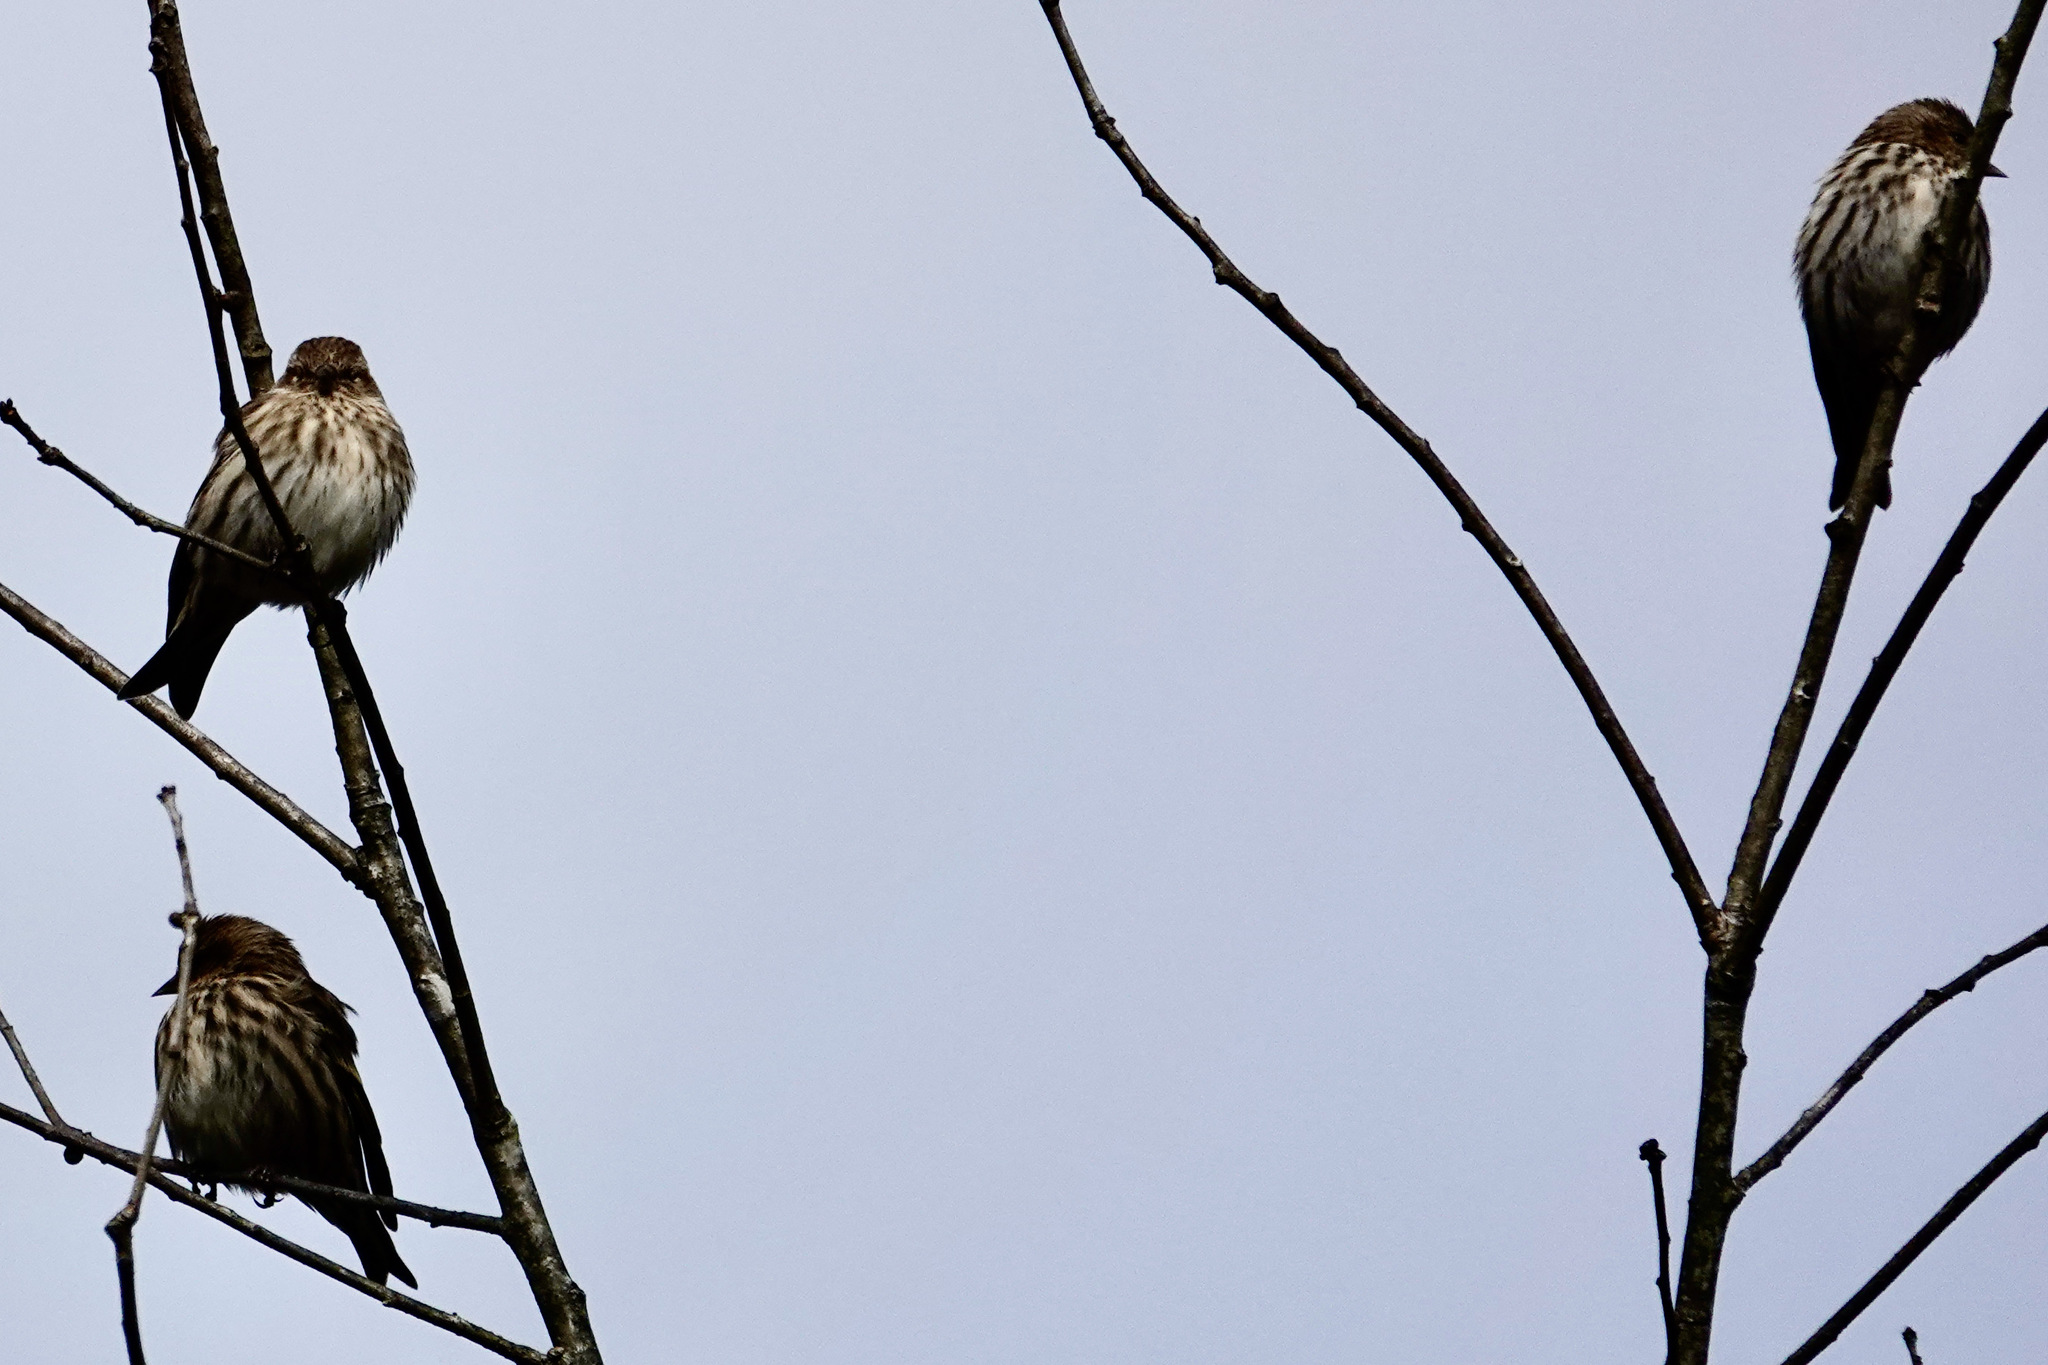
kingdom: Animalia
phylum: Chordata
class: Aves
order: Passeriformes
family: Fringillidae
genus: Spinus
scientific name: Spinus pinus
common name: Pine siskin
